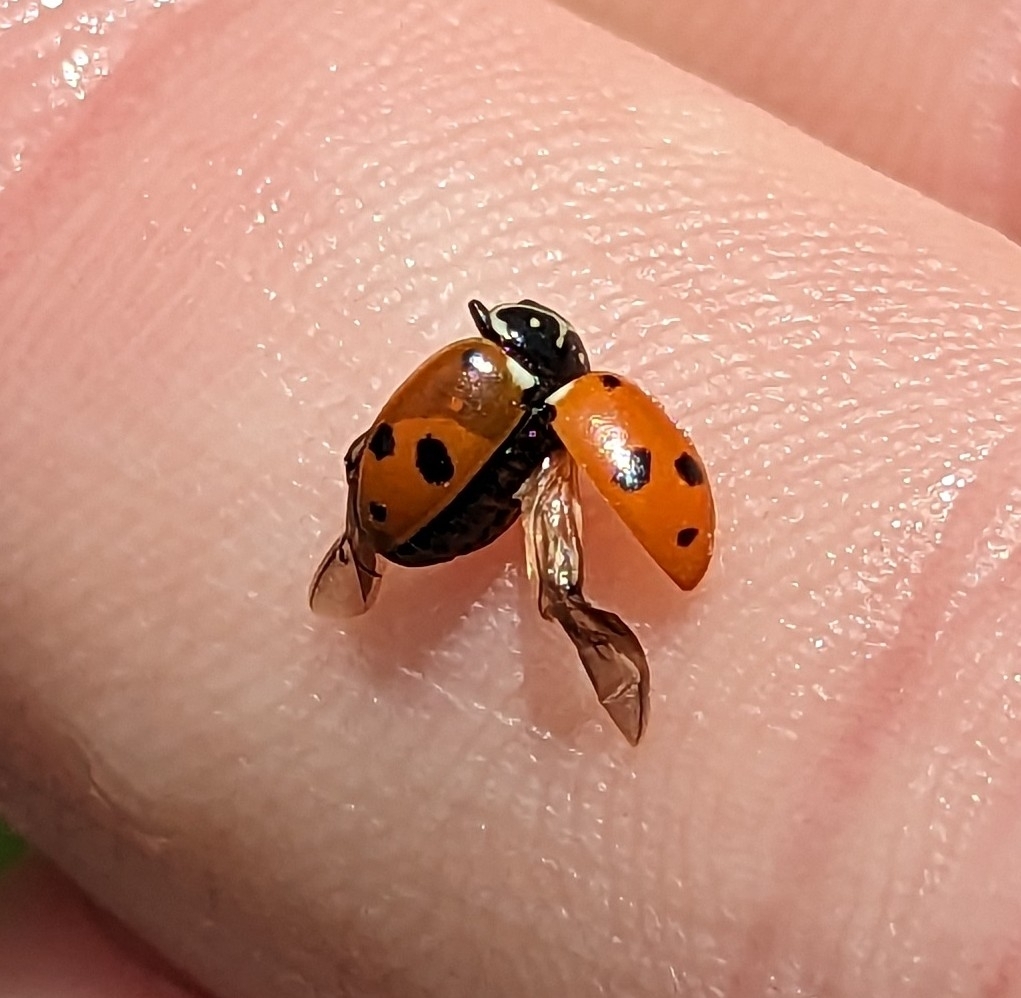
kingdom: Animalia
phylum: Arthropoda
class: Insecta
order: Coleoptera
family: Coccinellidae
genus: Hippodamia
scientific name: Hippodamia variegata
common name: Ladybird beetle
